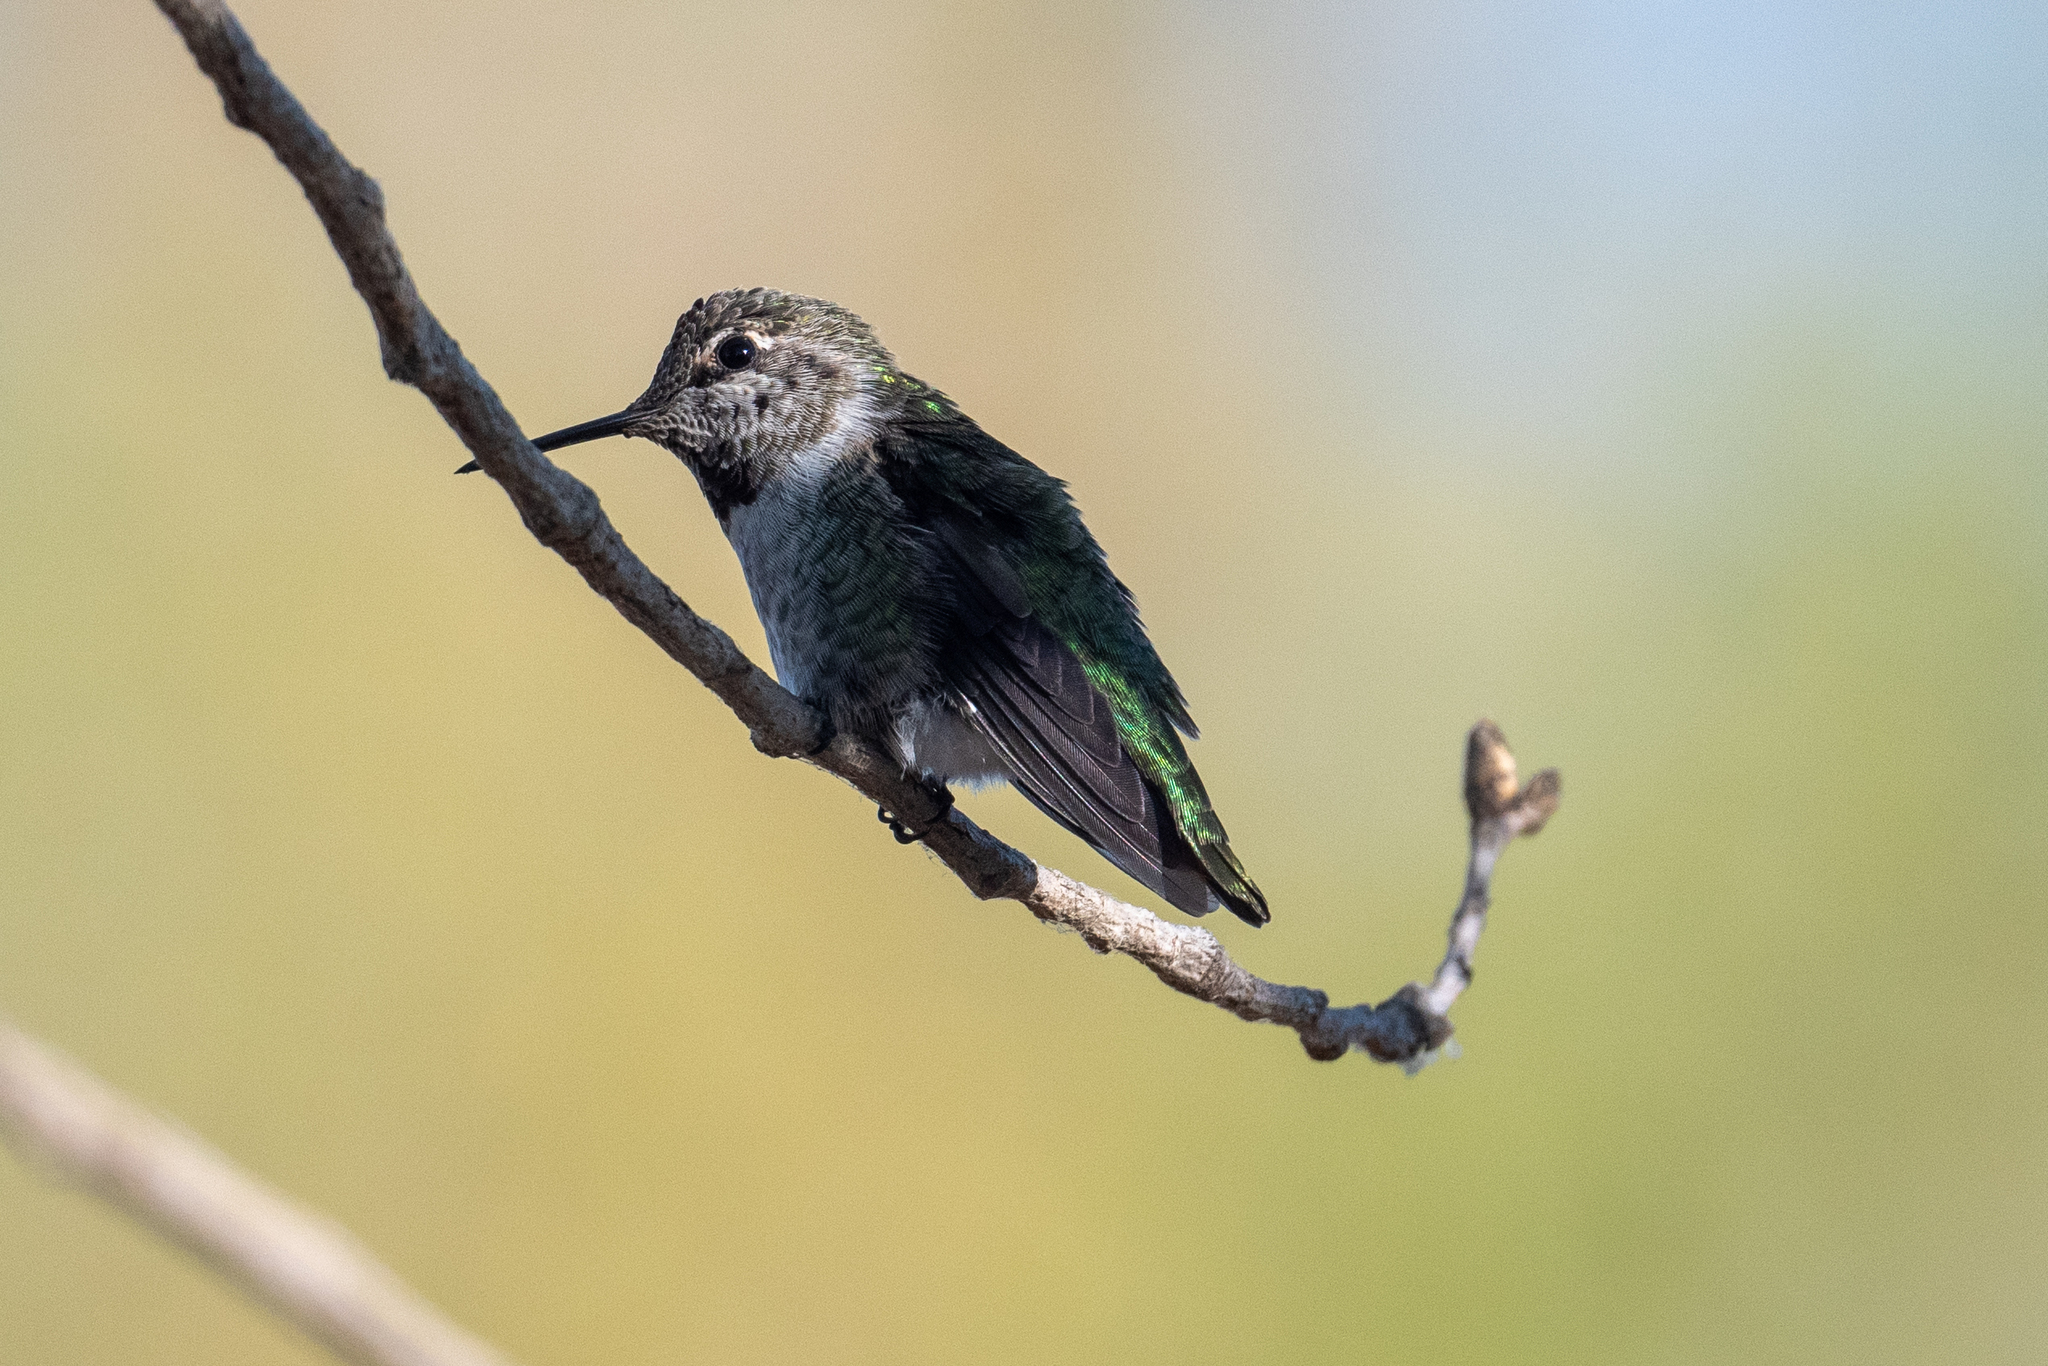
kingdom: Animalia
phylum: Chordata
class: Aves
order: Apodiformes
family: Trochilidae
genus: Calypte
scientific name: Calypte anna
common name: Anna's hummingbird
